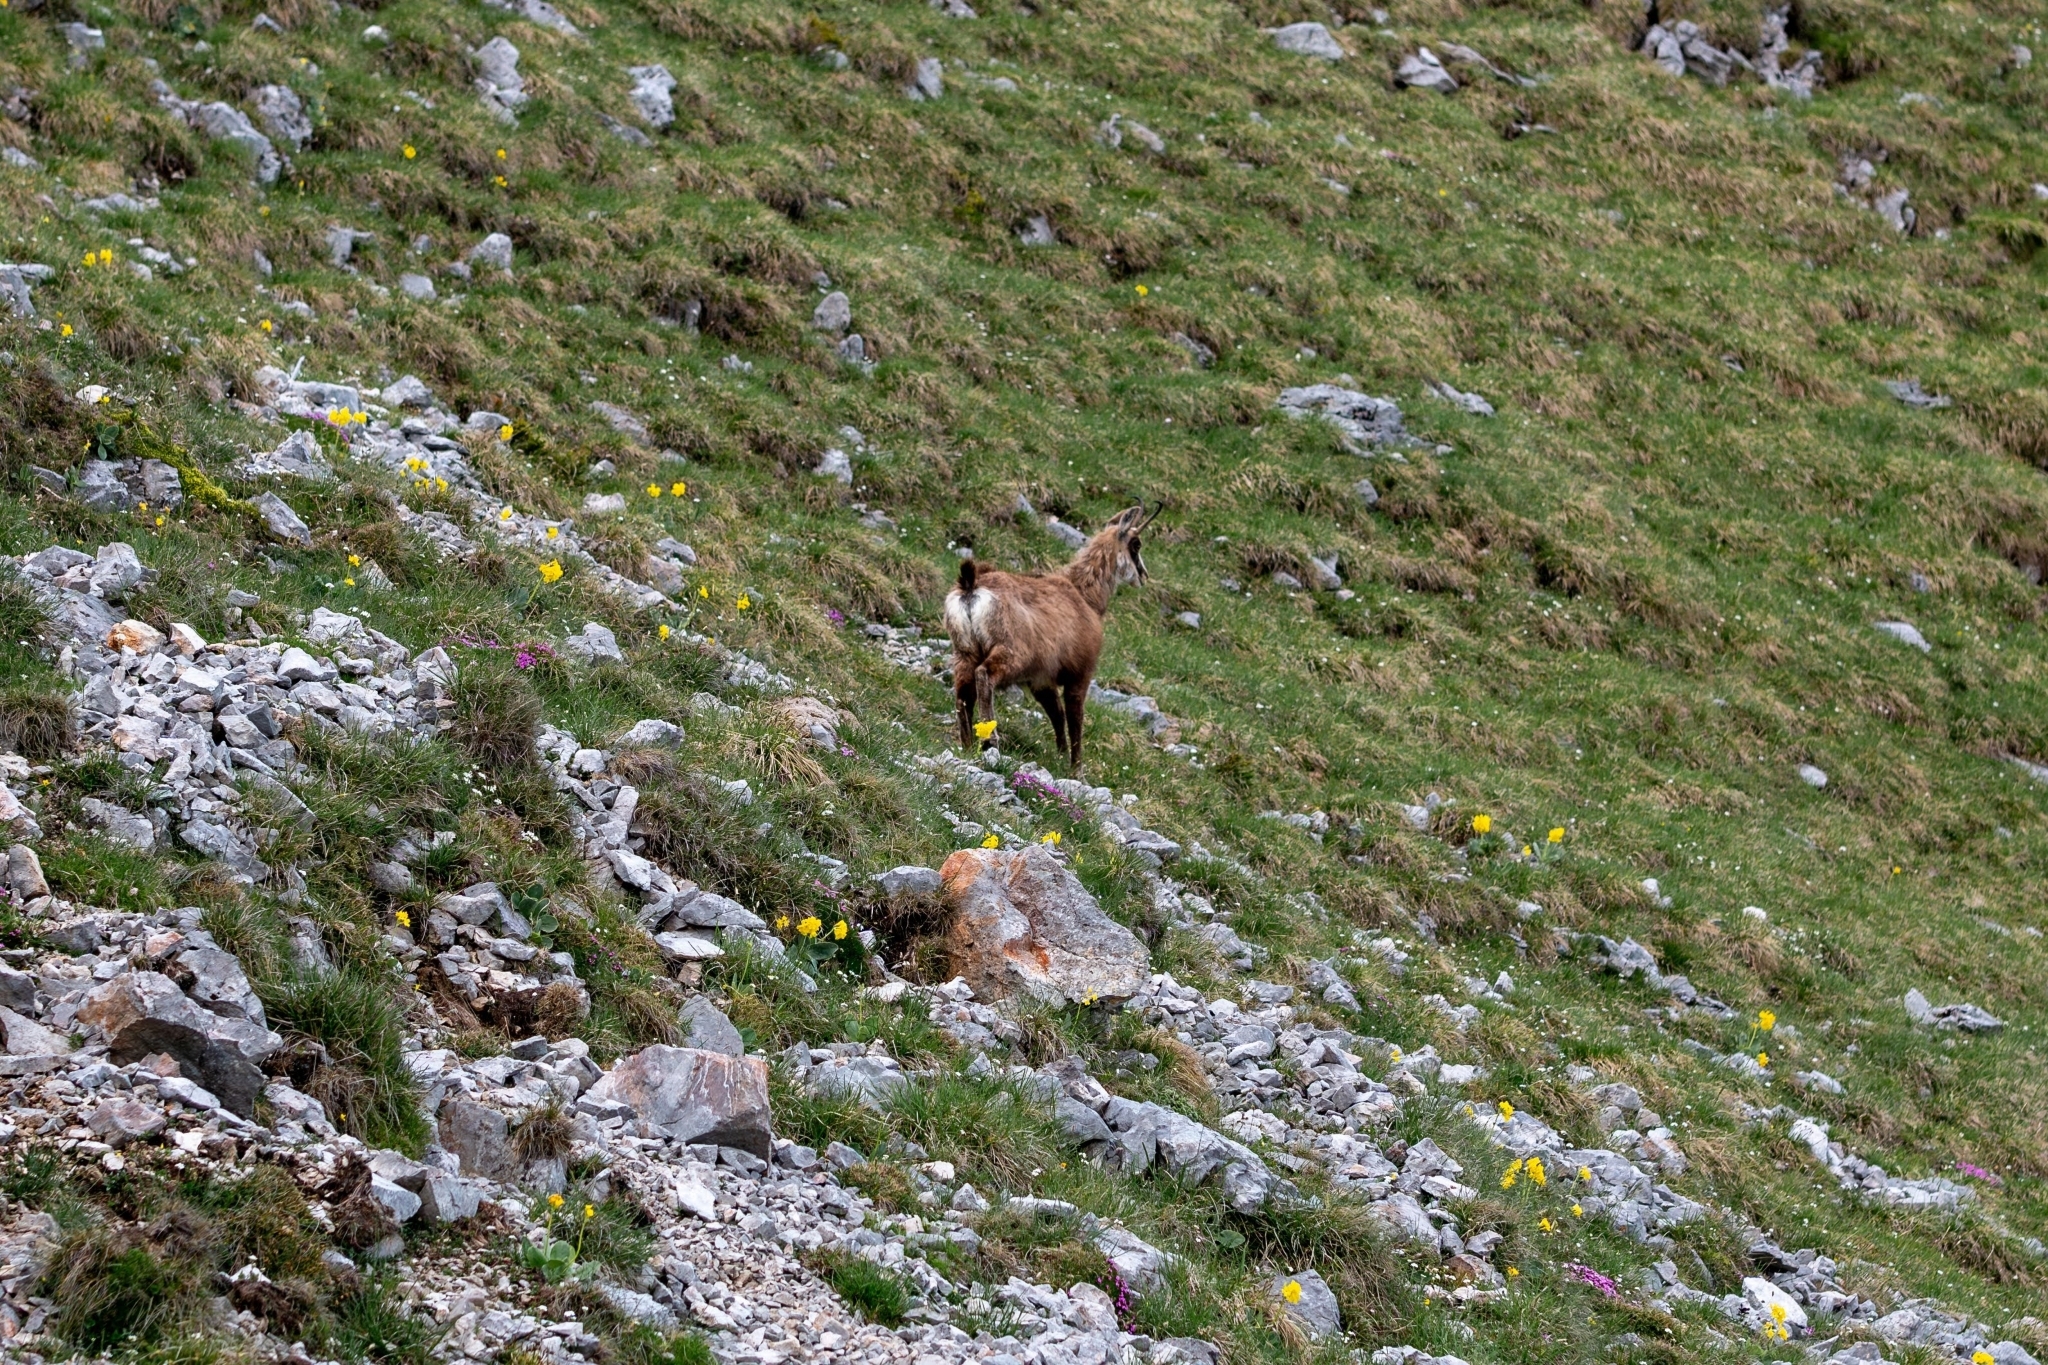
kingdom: Animalia
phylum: Chordata
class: Mammalia
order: Artiodactyla
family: Bovidae
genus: Rupicapra
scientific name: Rupicapra rupicapra
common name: Chamois
